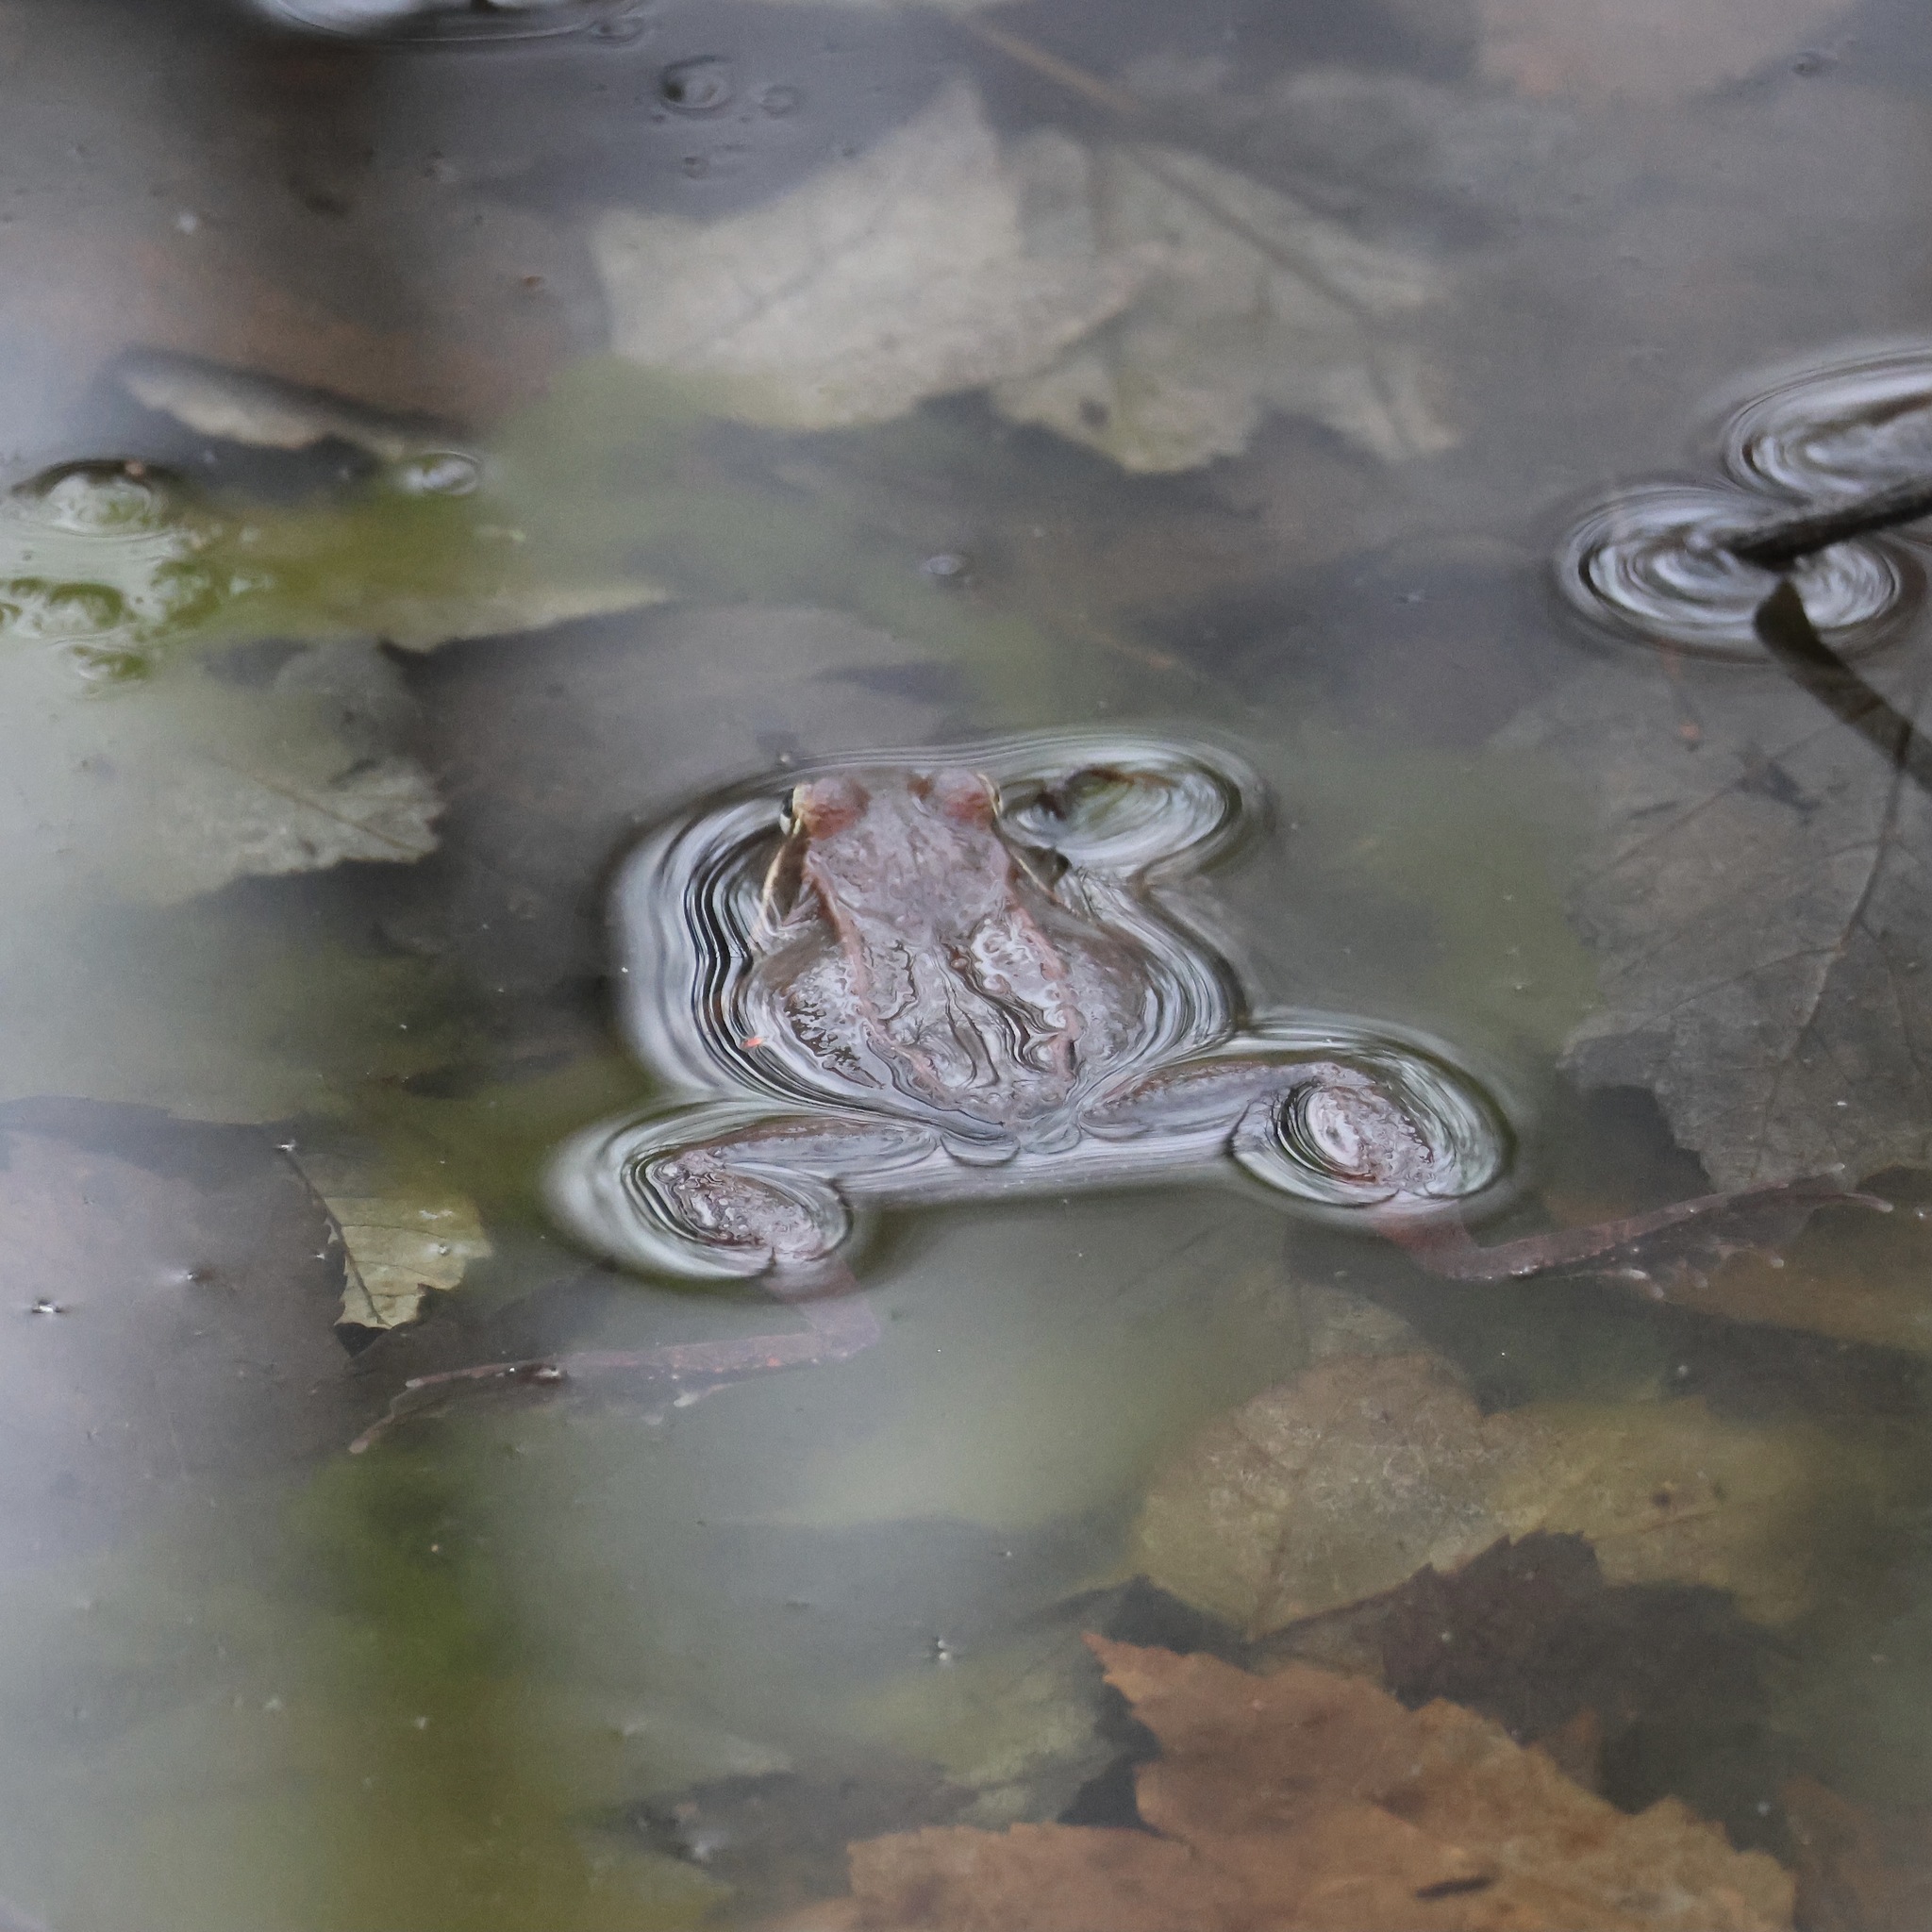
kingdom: Animalia
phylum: Chordata
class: Amphibia
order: Anura
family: Ranidae
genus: Lithobates
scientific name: Lithobates sylvaticus
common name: Wood frog
